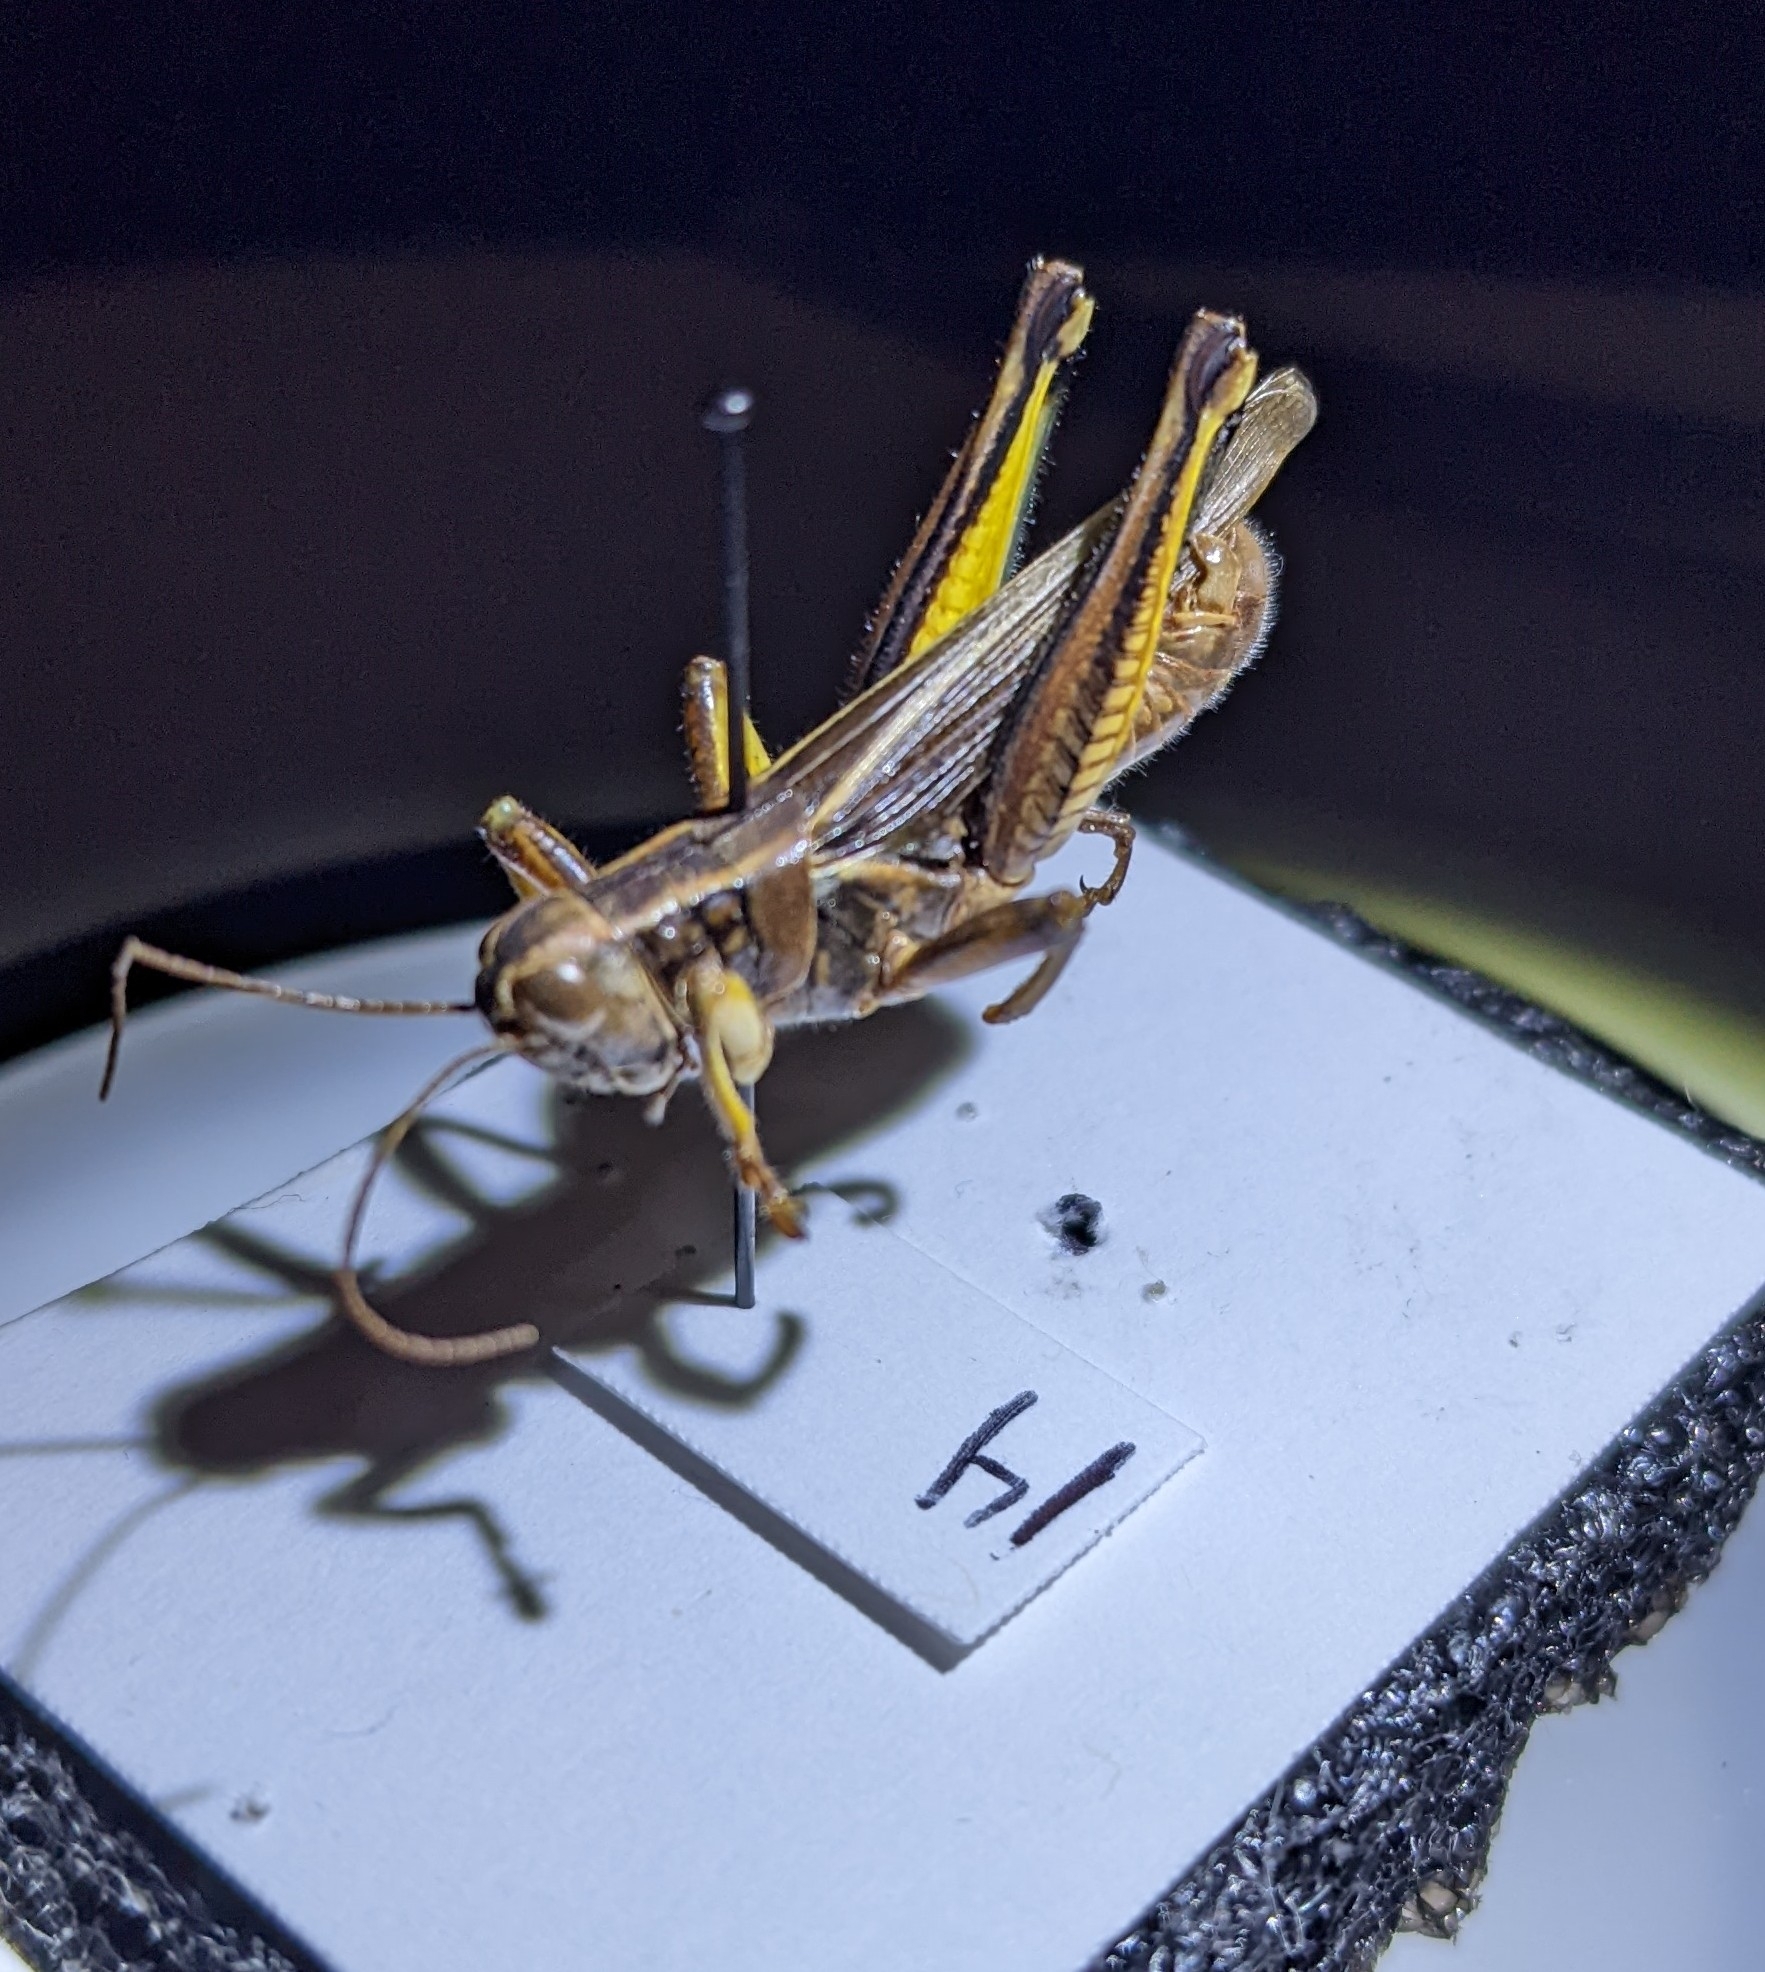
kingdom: Animalia
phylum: Arthropoda
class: Insecta
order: Orthoptera
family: Acrididae
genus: Melanoplus
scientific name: Melanoplus bivittatus
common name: Two-striped grasshopper
